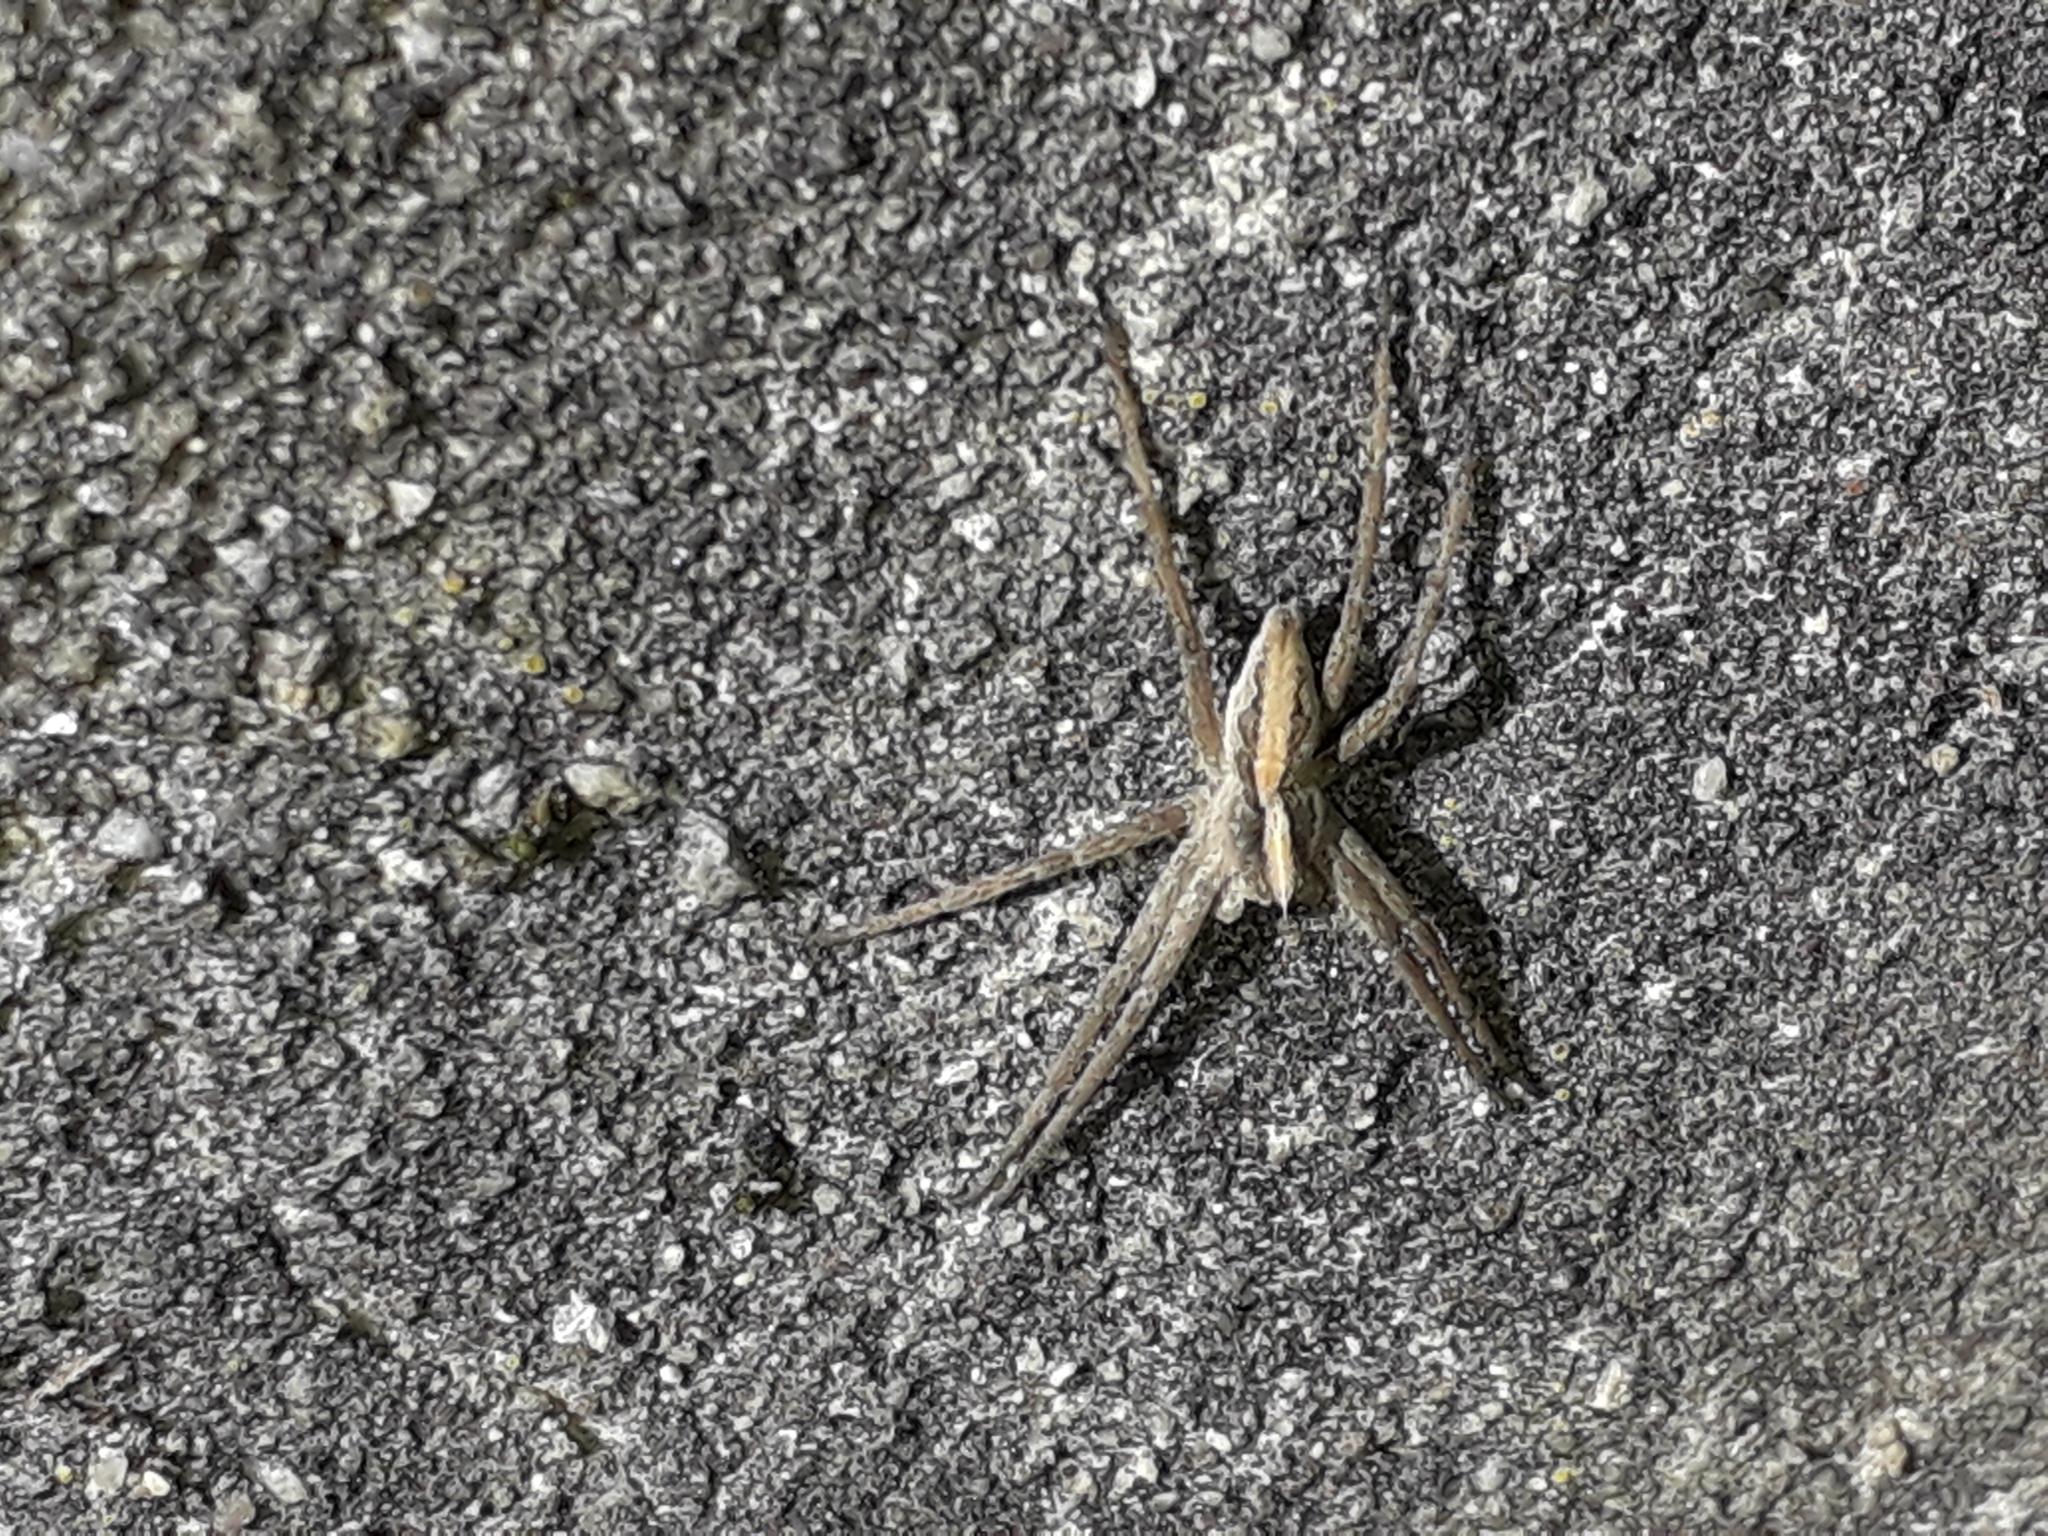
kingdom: Animalia
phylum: Arthropoda
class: Arachnida
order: Araneae
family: Pisauridae
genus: Pisaura
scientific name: Pisaura mirabilis
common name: Tent spider
